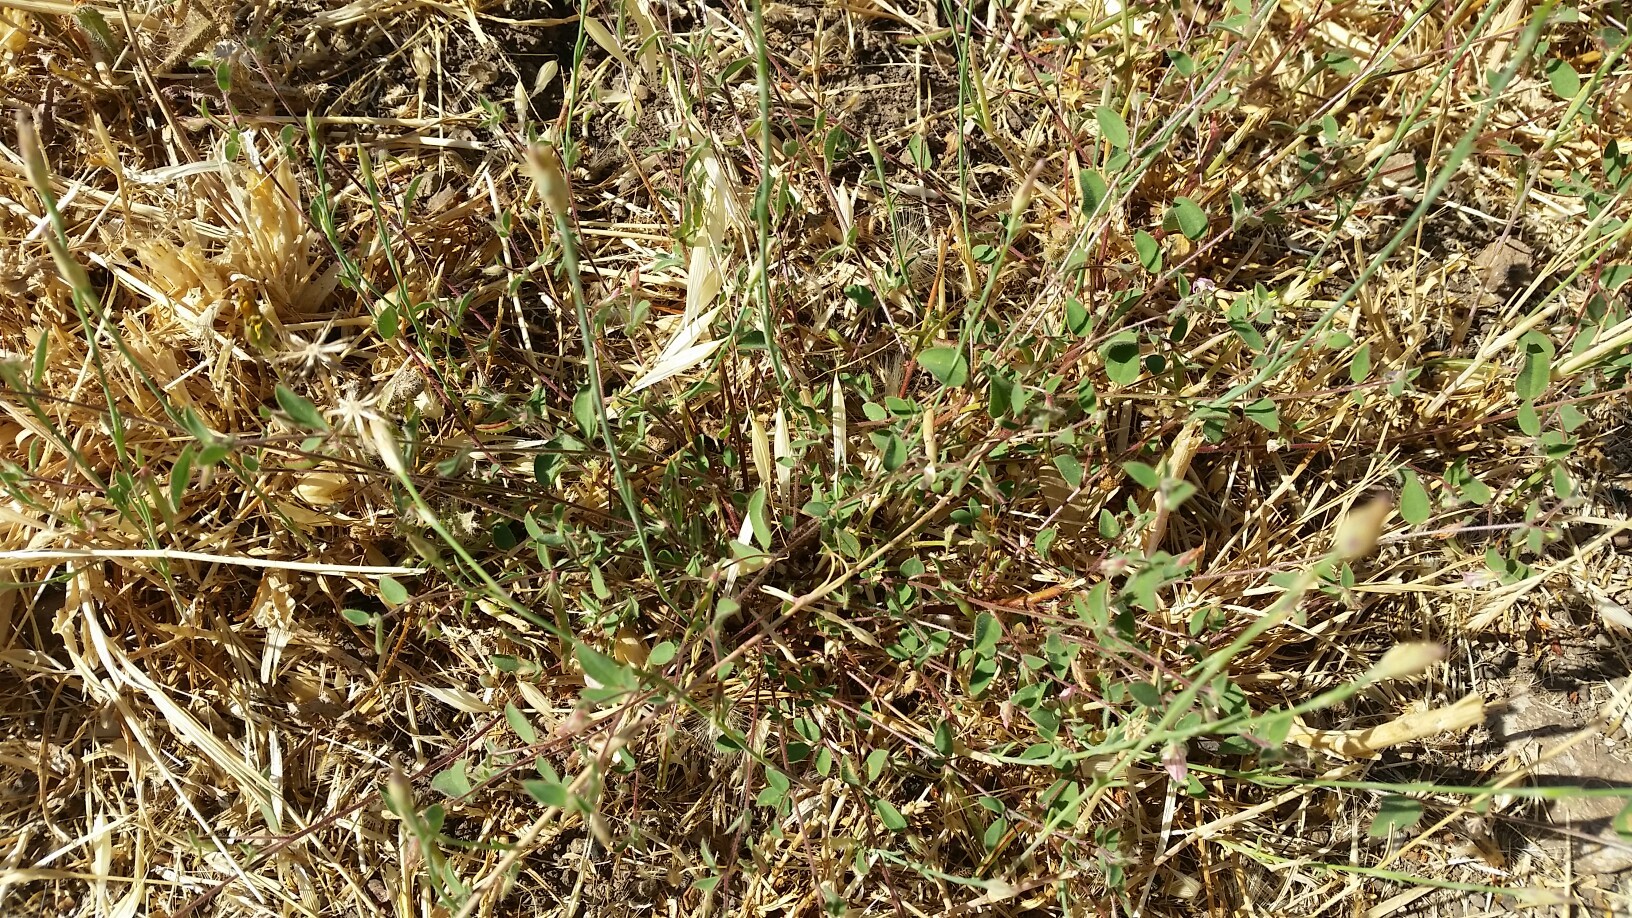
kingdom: Plantae
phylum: Tracheophyta
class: Magnoliopsida
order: Fabales
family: Fabaceae
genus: Acmispon
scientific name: Acmispon americanus
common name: American bird's-foot trefoil
